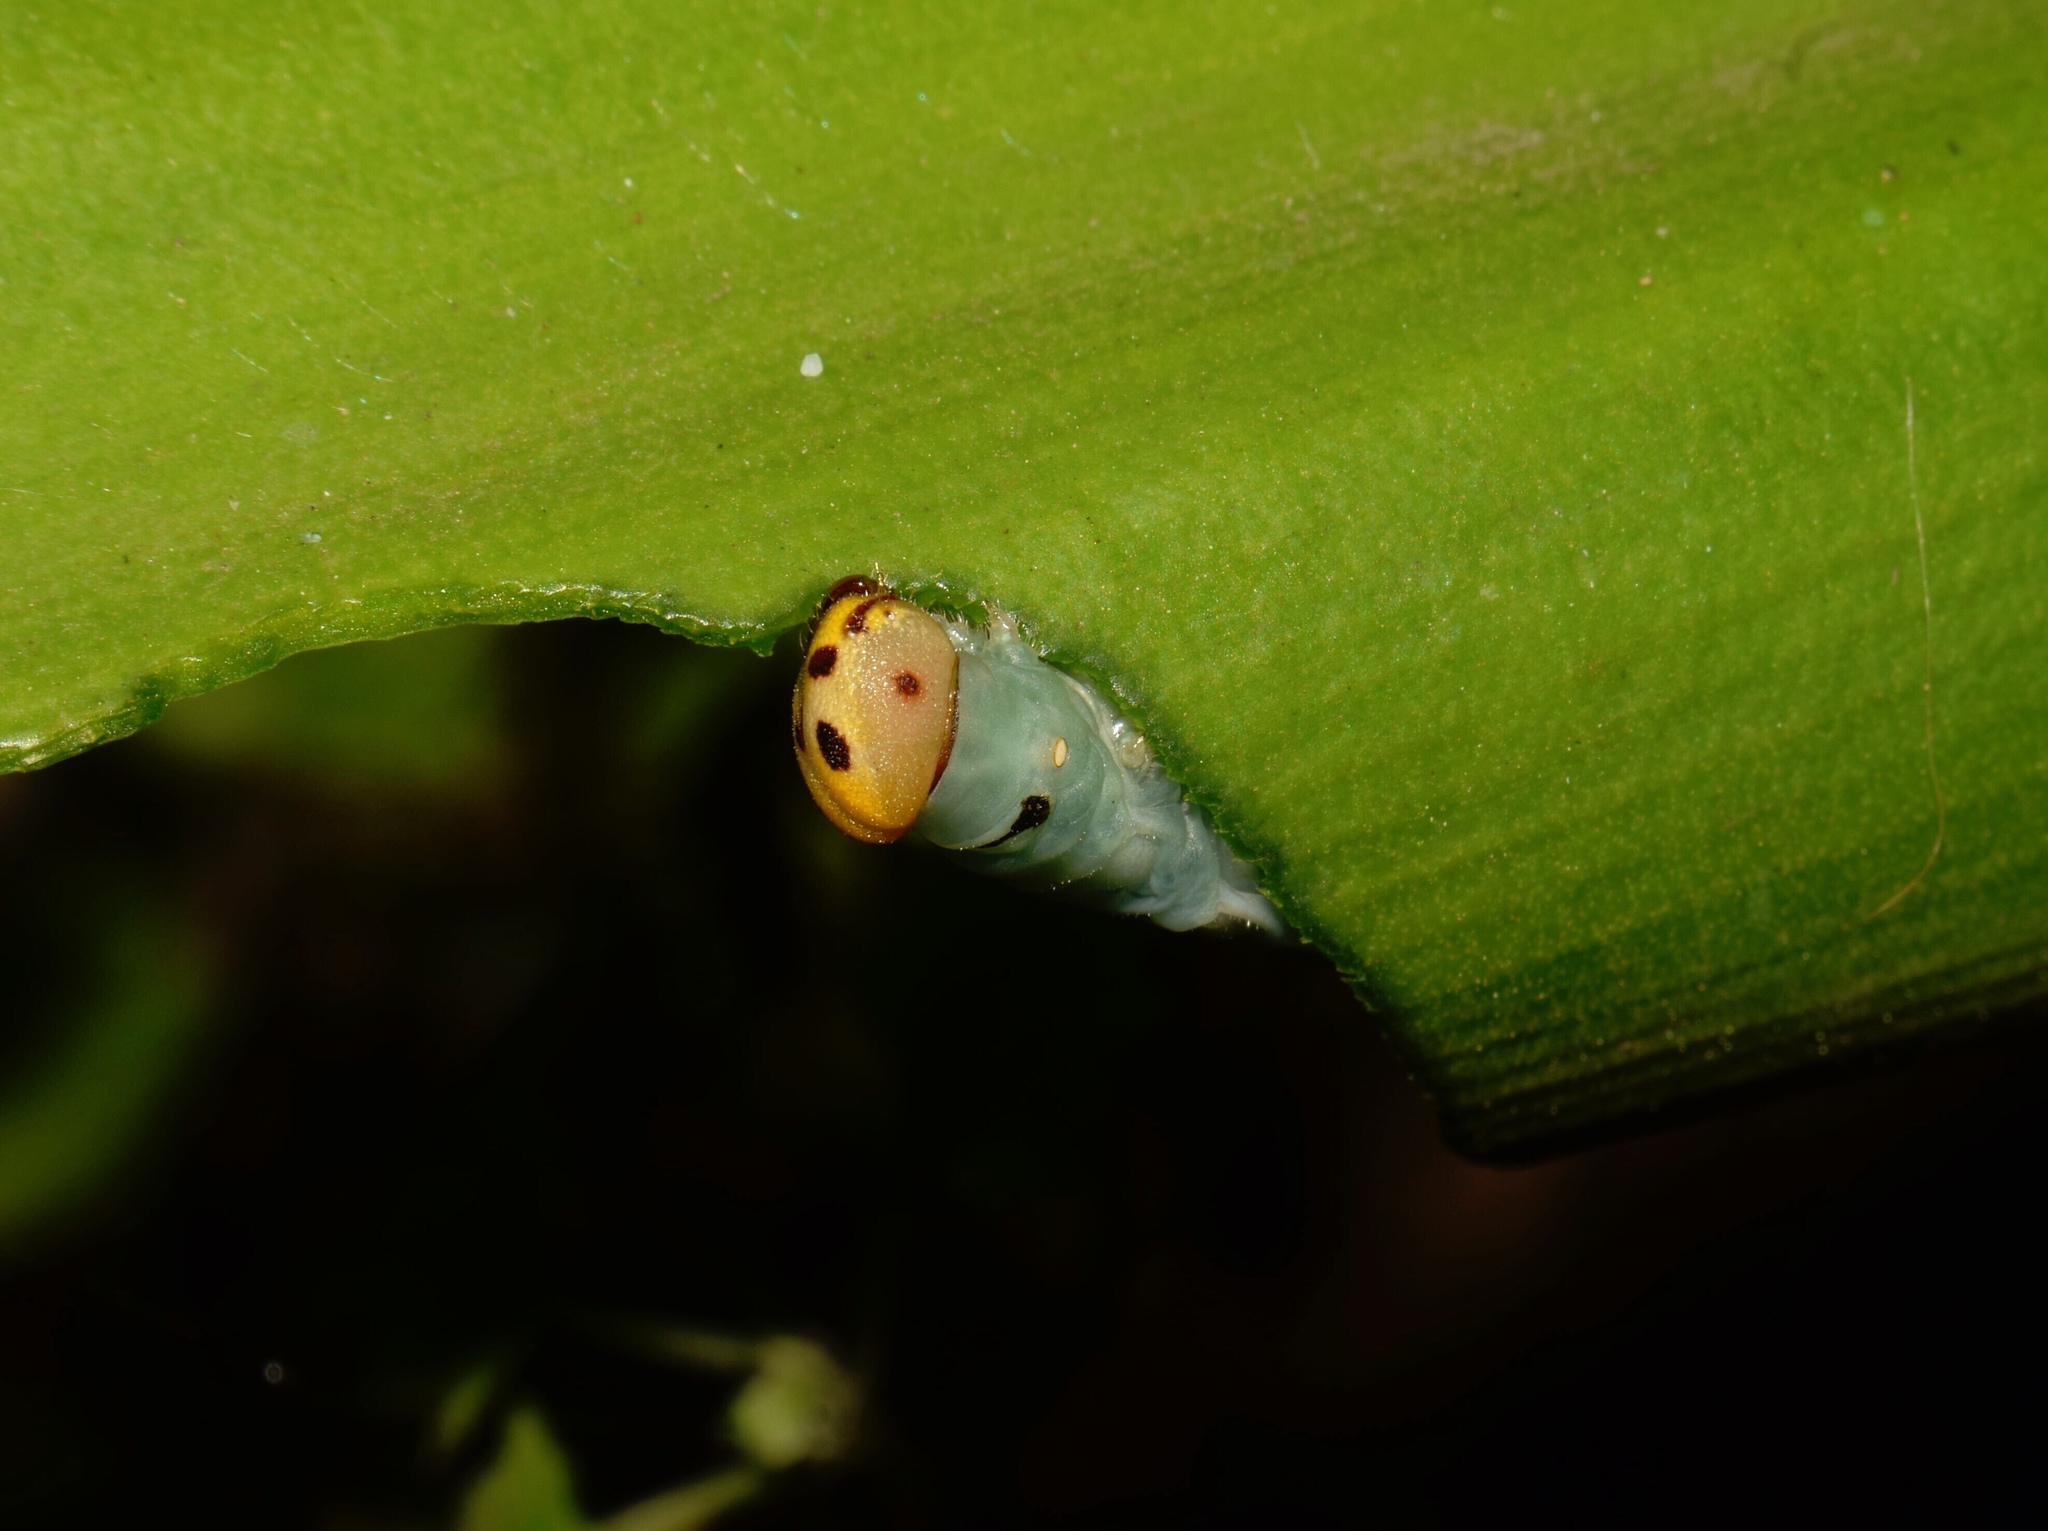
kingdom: Animalia
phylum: Arthropoda
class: Insecta
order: Lepidoptera
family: Hesperiidae
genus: Artitropa
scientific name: Artitropa erinnys
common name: Bush nightfighter
